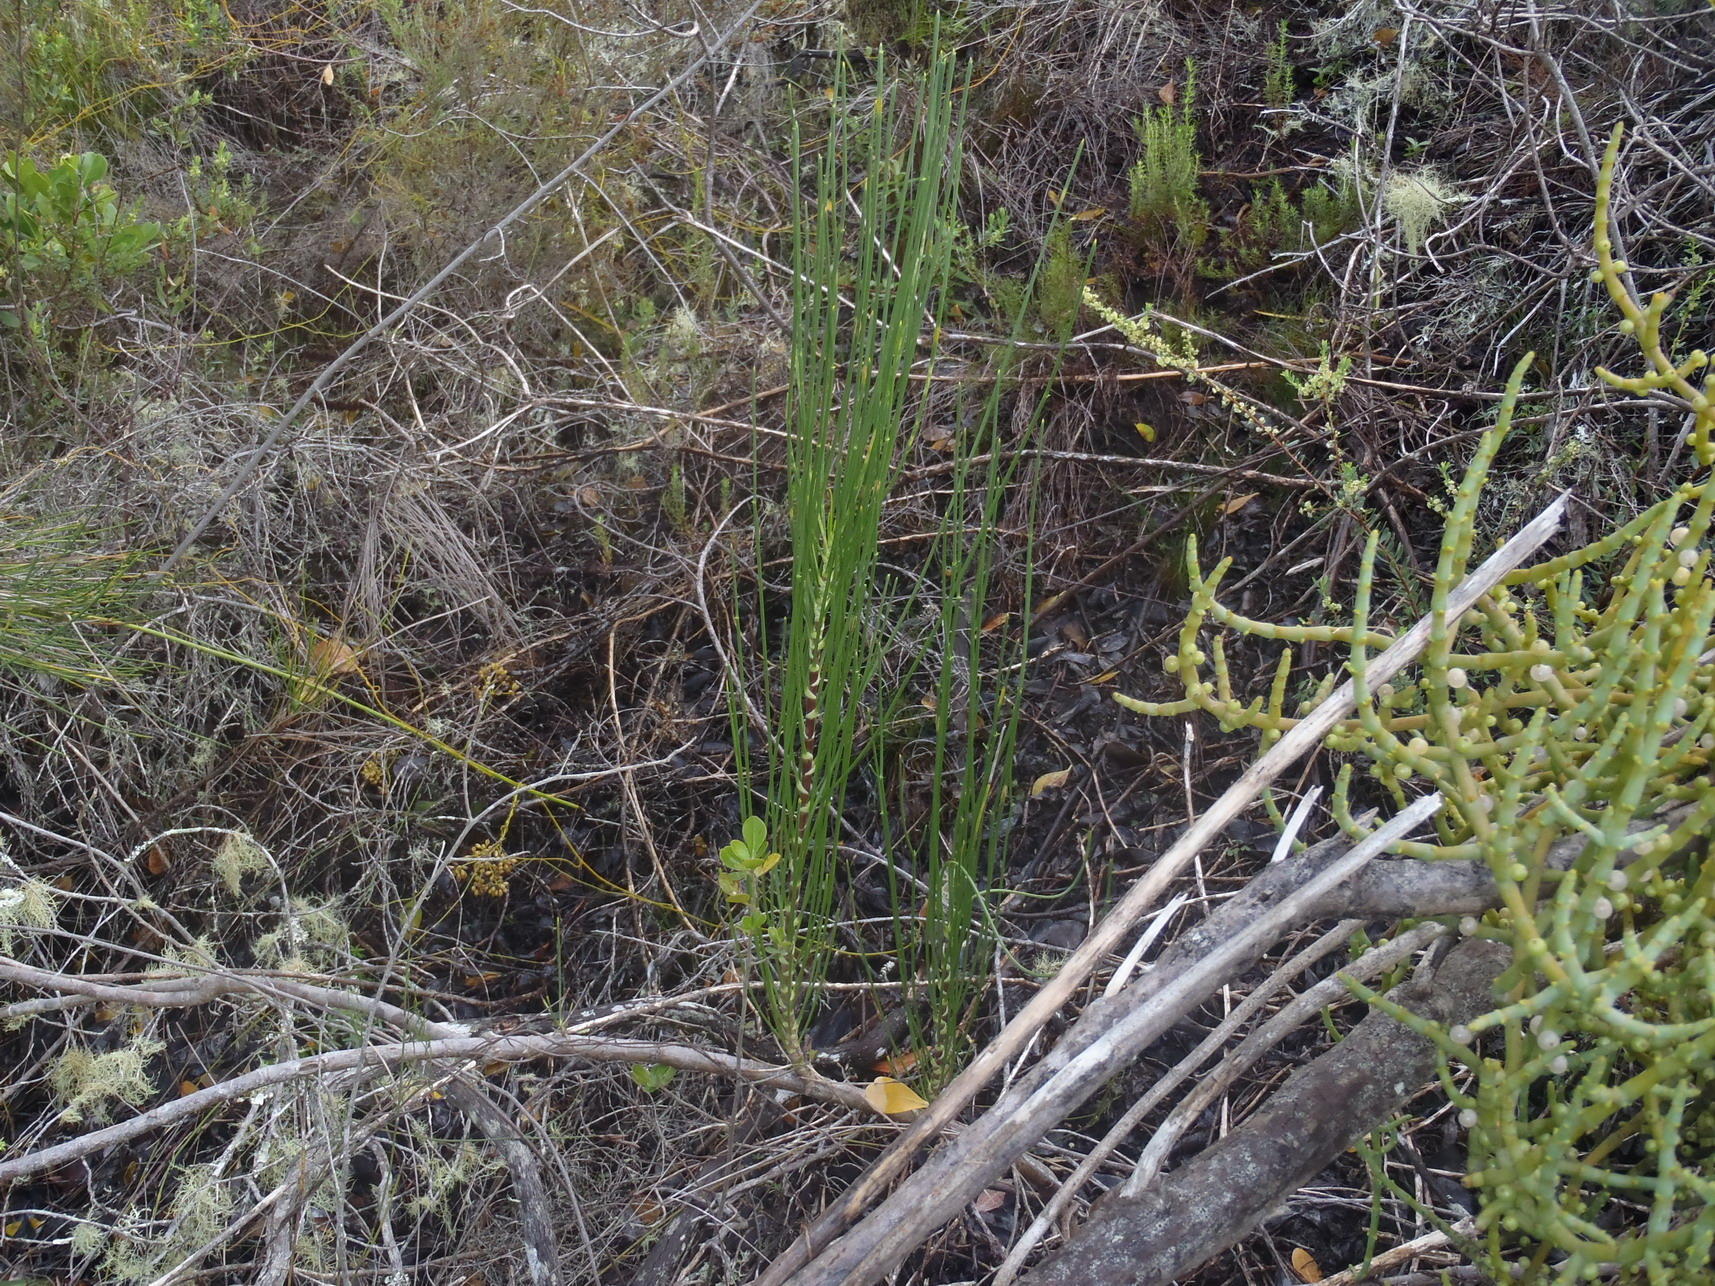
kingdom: Plantae
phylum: Tracheophyta
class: Magnoliopsida
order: Apiales
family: Apiaceae
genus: Anginon
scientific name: Anginon difforme
